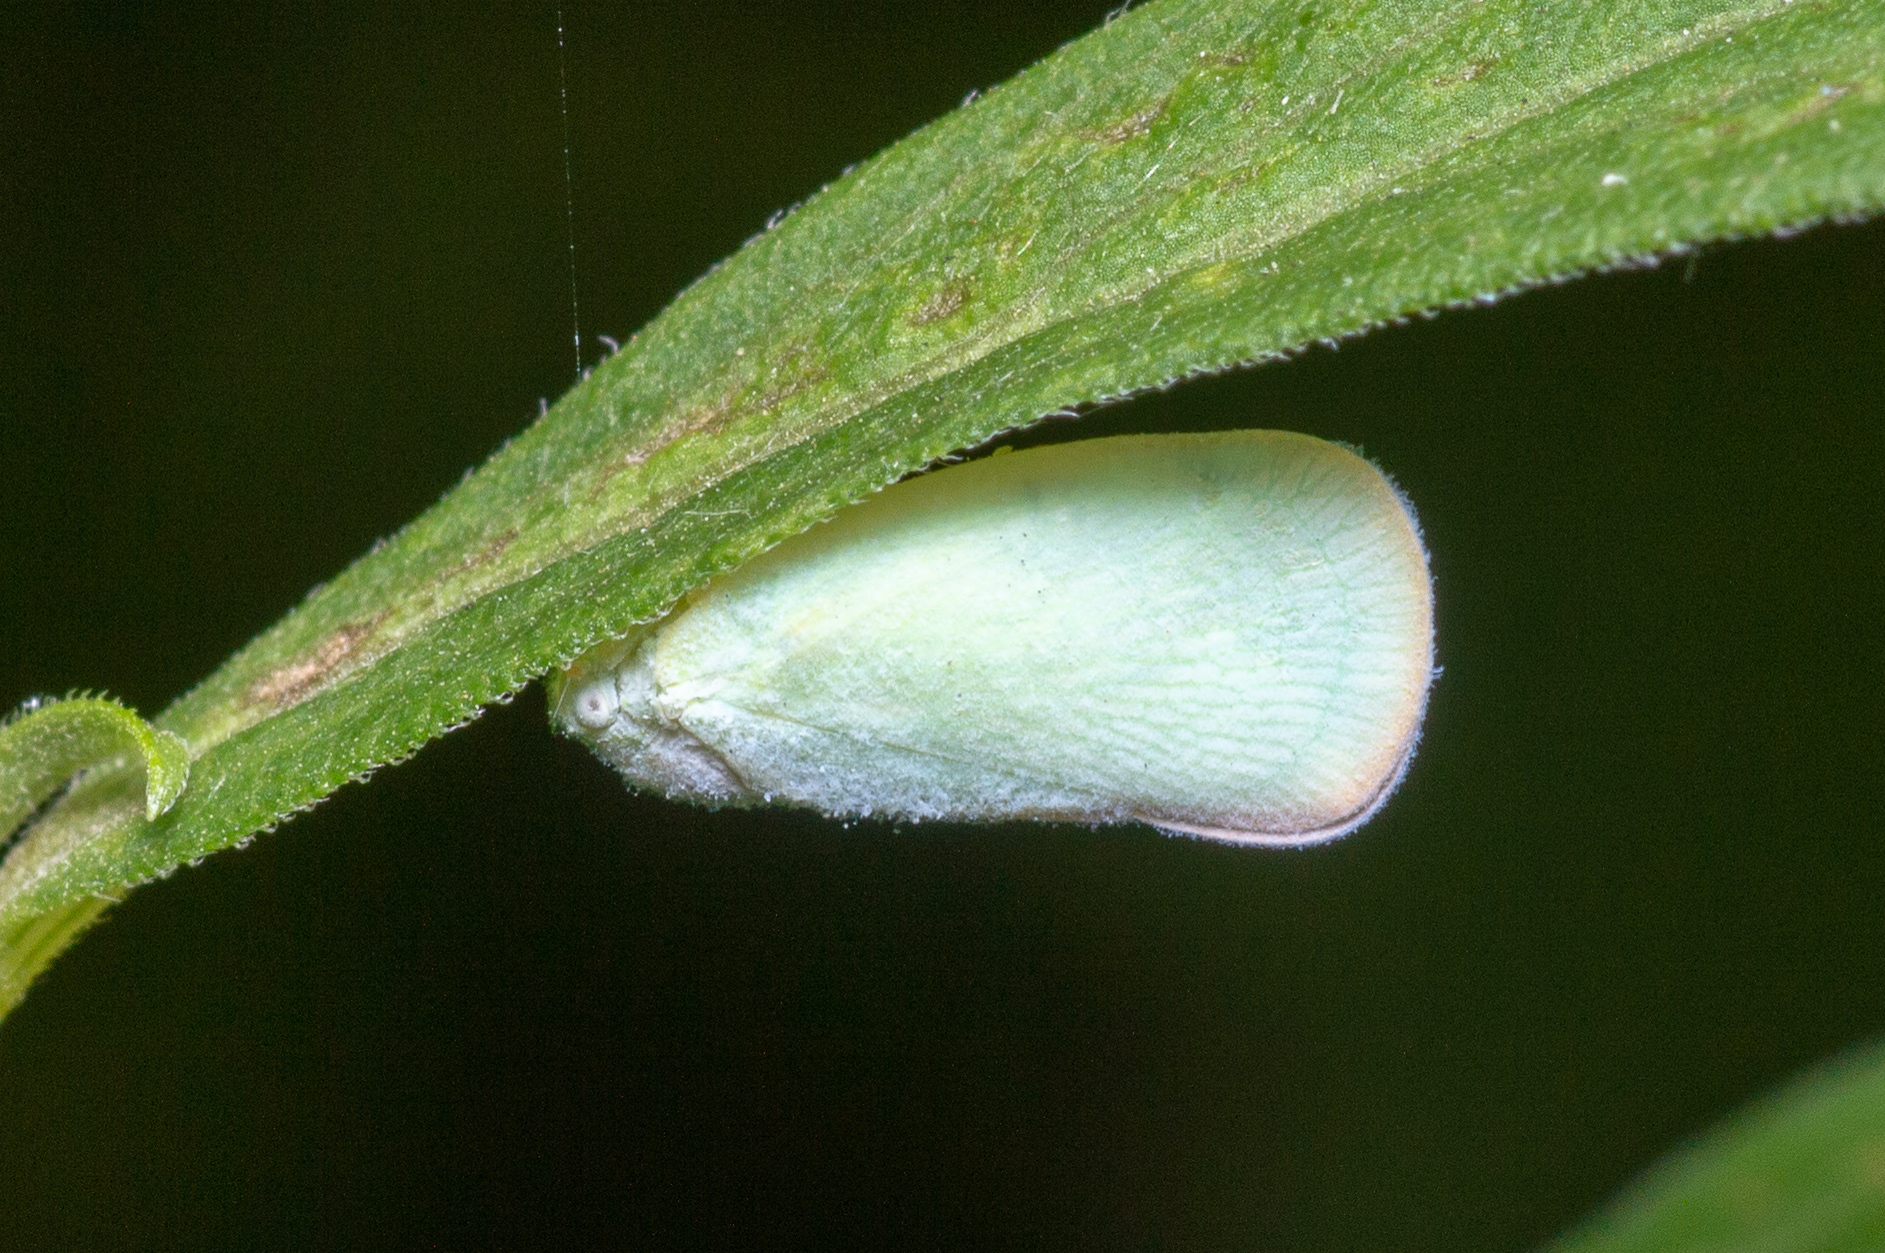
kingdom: Animalia
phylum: Arthropoda
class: Insecta
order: Hemiptera
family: Flatidae
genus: Ormenoides
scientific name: Ormenoides venusta
